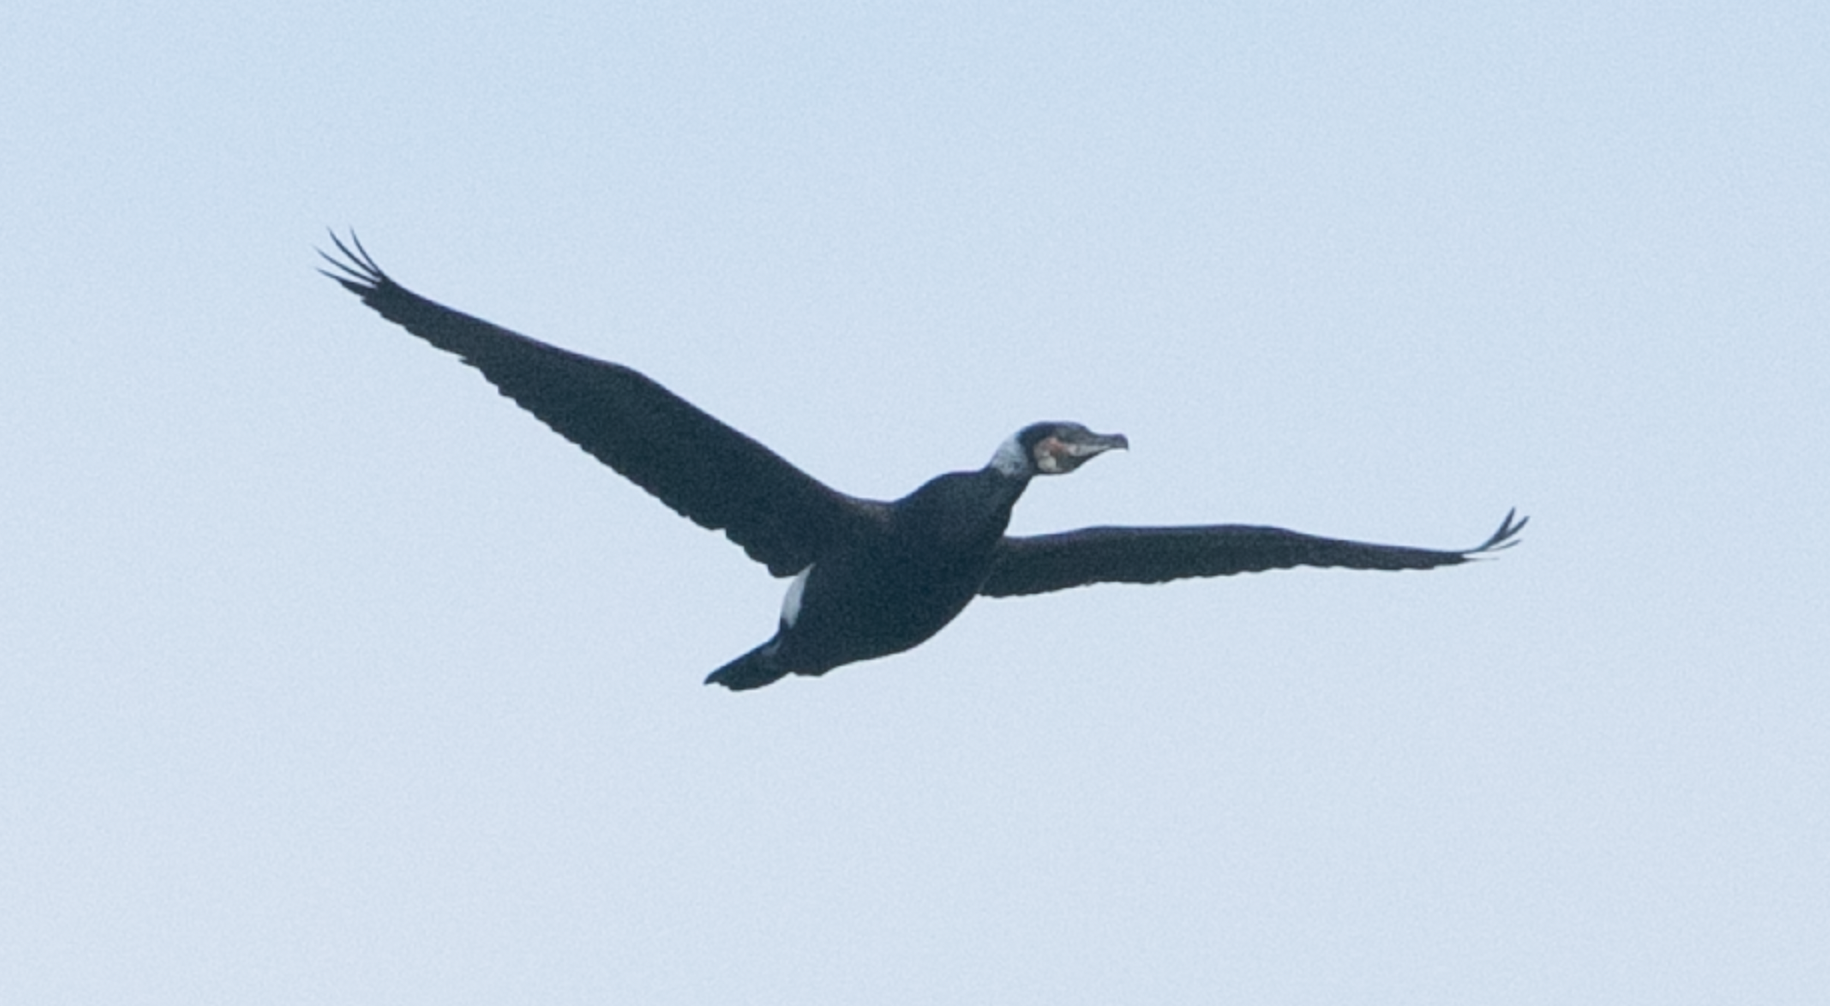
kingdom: Animalia
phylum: Chordata
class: Aves
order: Suliformes
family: Phalacrocoracidae
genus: Phalacrocorax
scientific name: Phalacrocorax carbo
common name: Great cormorant
